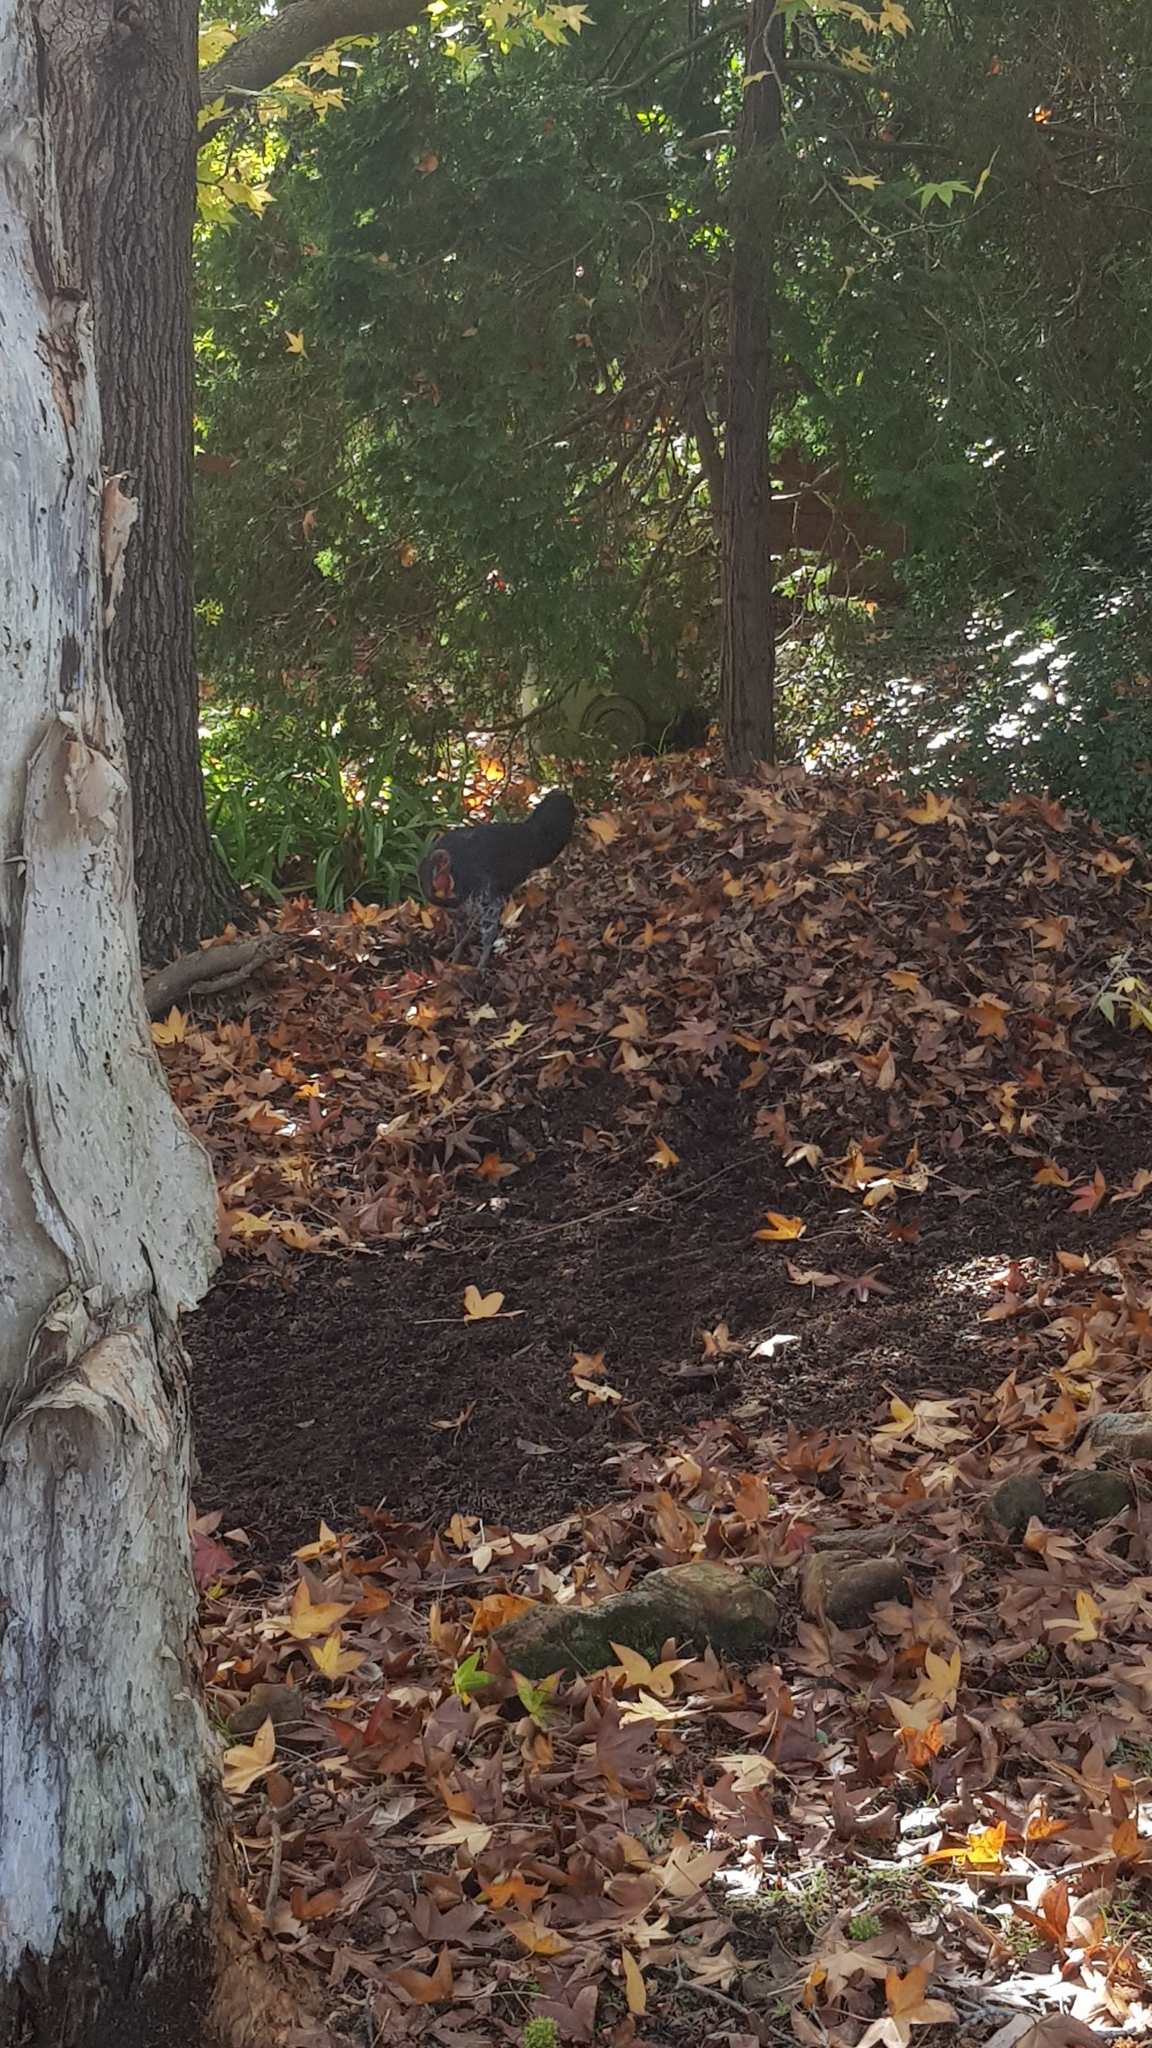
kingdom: Animalia
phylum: Chordata
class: Aves
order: Galliformes
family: Megapodiidae
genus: Alectura
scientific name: Alectura lathami
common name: Australian brushturkey
